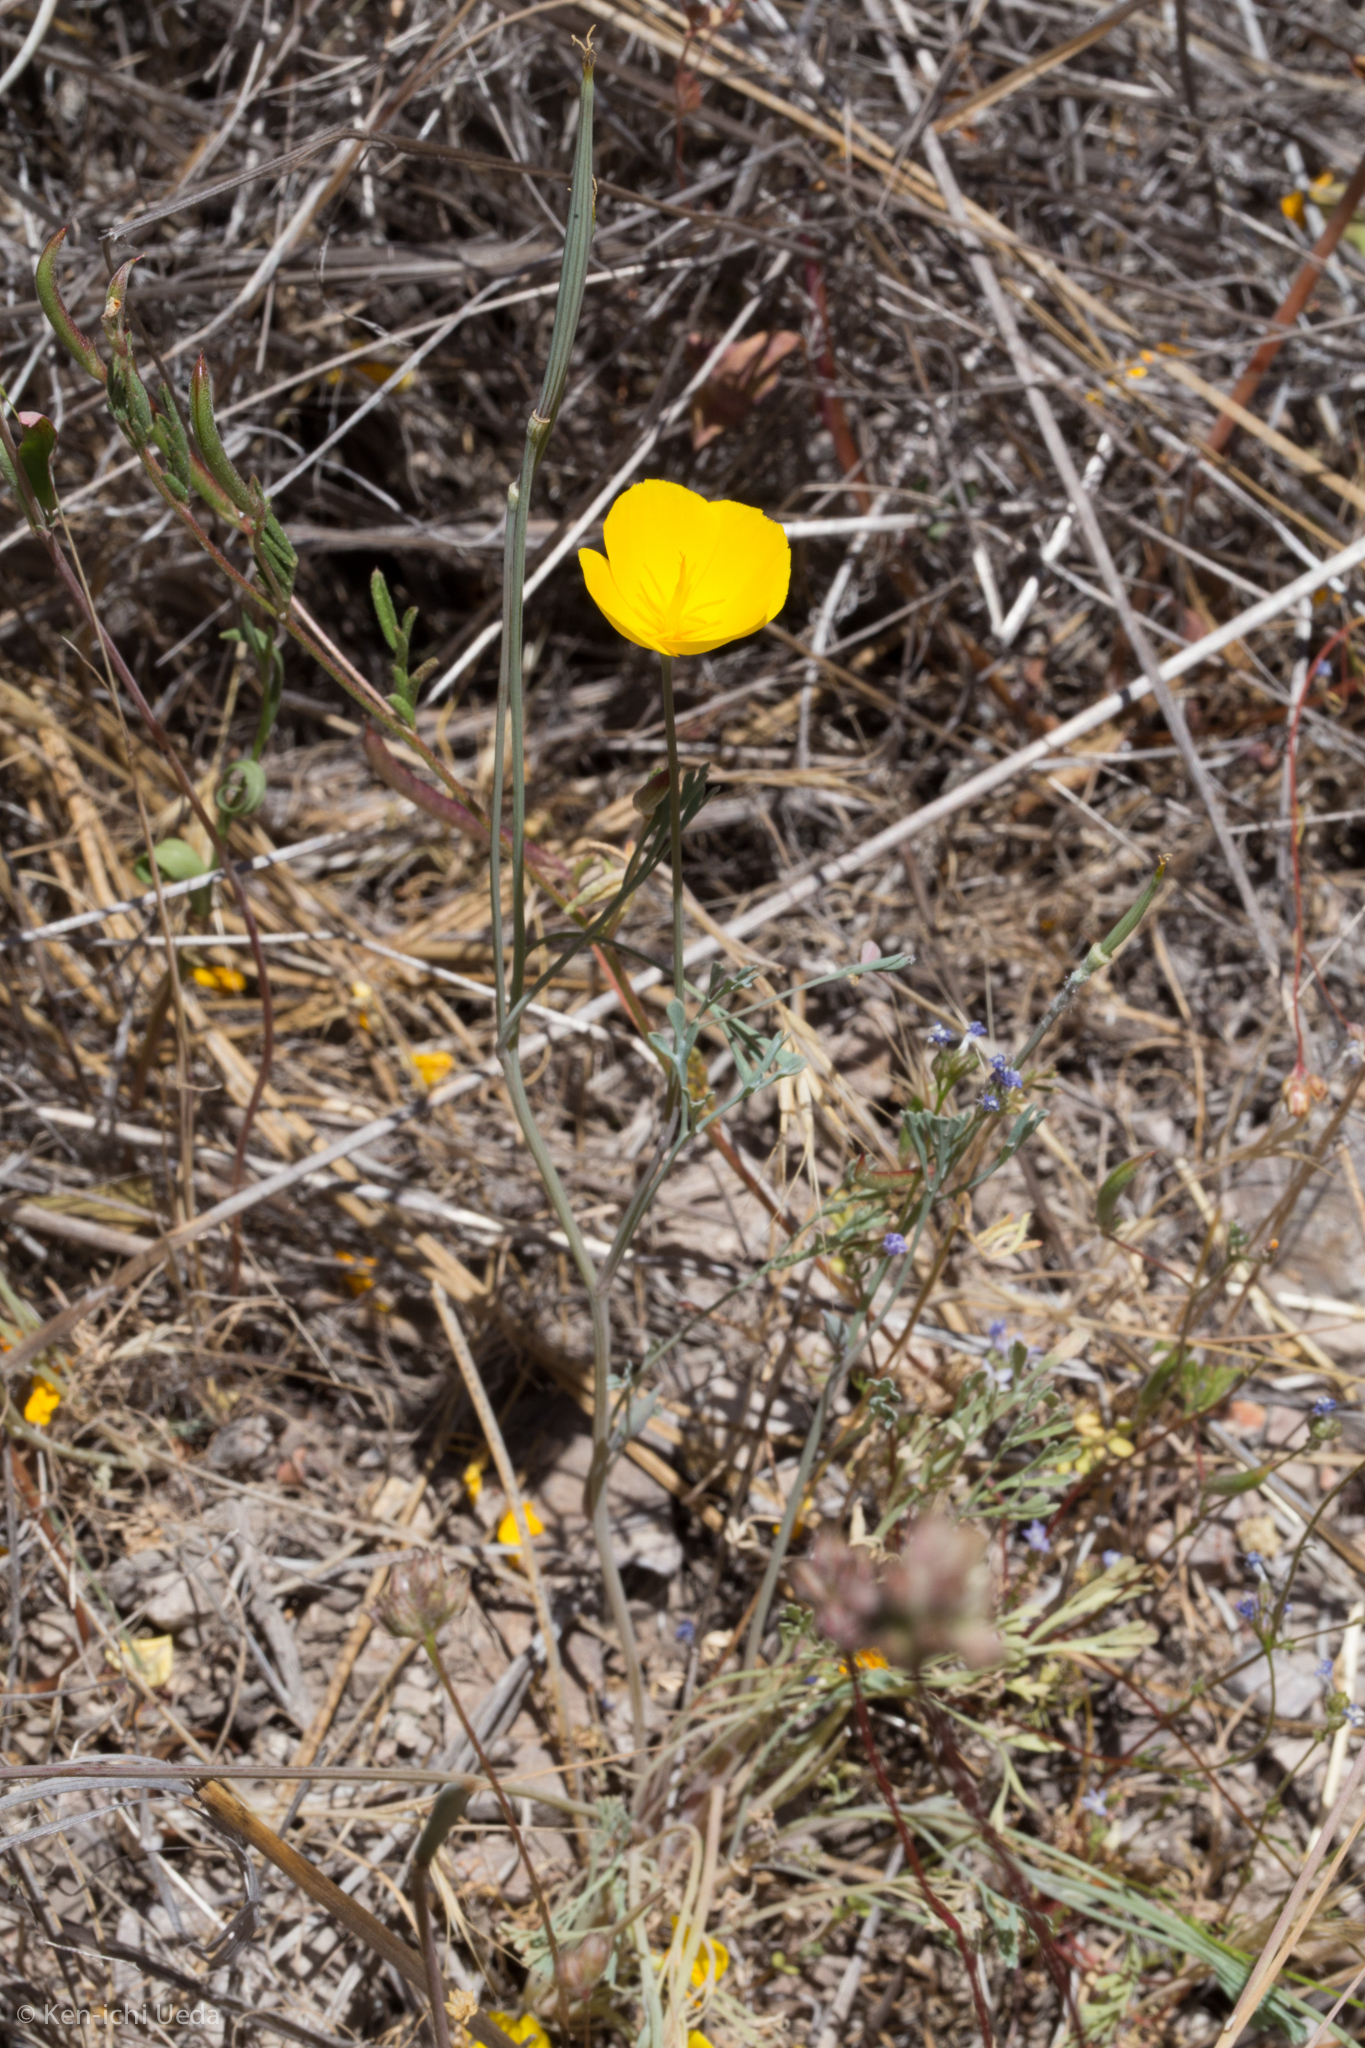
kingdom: Plantae
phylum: Tracheophyta
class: Magnoliopsida
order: Ranunculales
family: Papaveraceae
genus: Eschscholzia
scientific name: Eschscholzia caespitosa
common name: Tufted california-poppy
